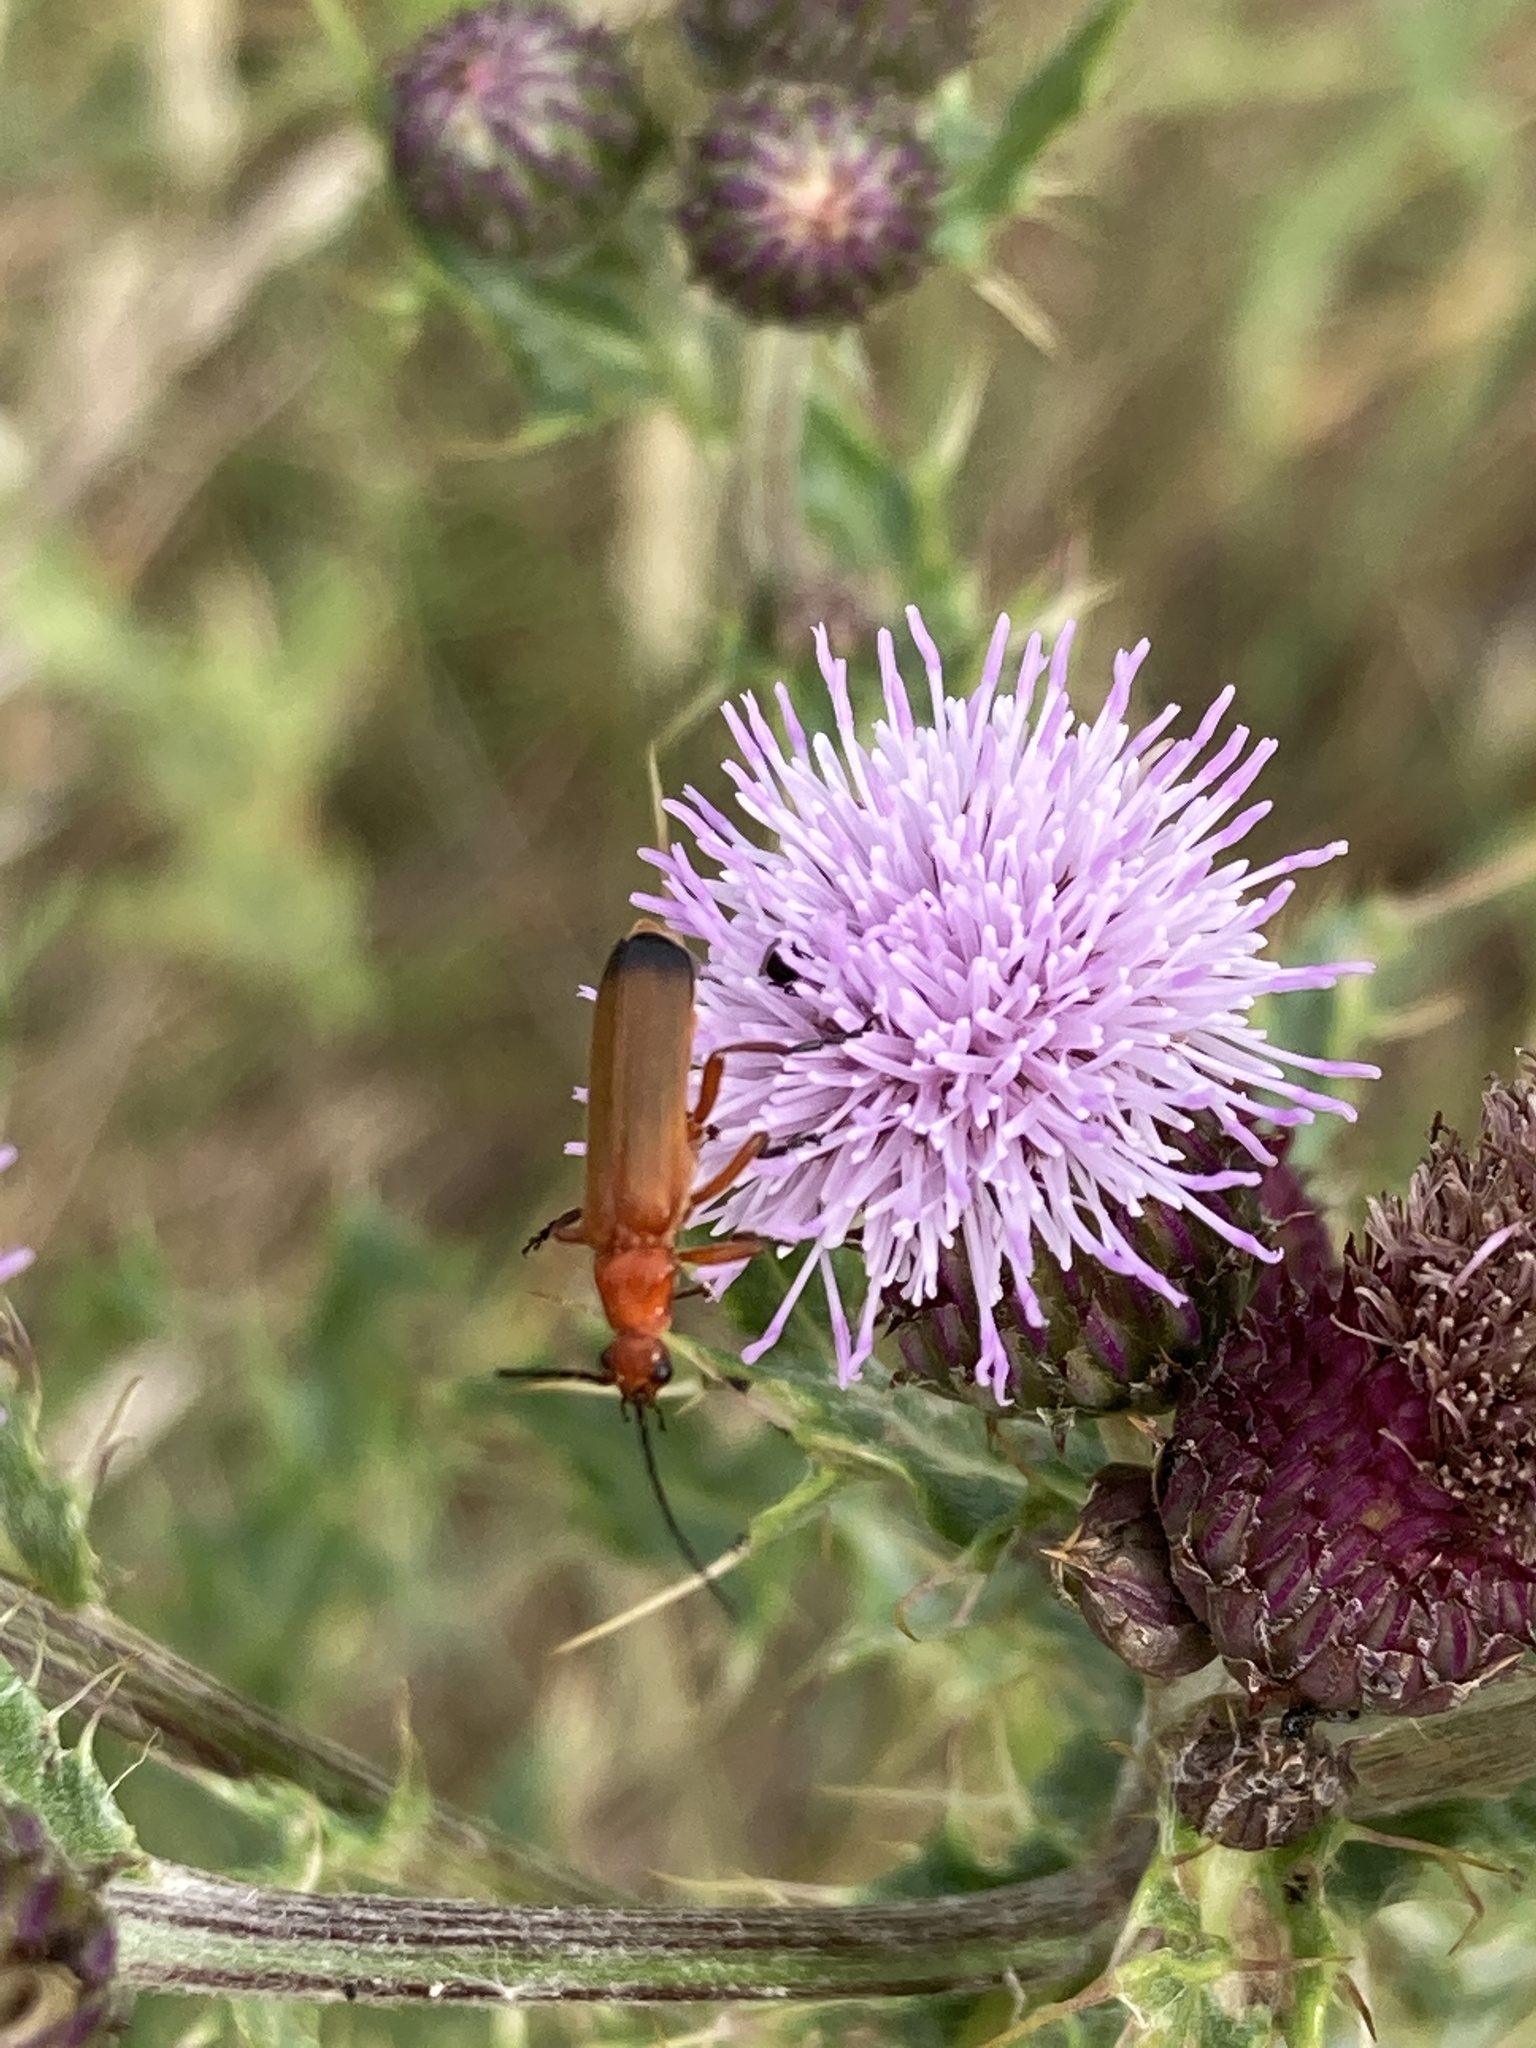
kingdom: Animalia
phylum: Arthropoda
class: Insecta
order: Coleoptera
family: Cantharidae
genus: Rhagonycha
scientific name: Rhagonycha fulva
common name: Common red soldier beetle
